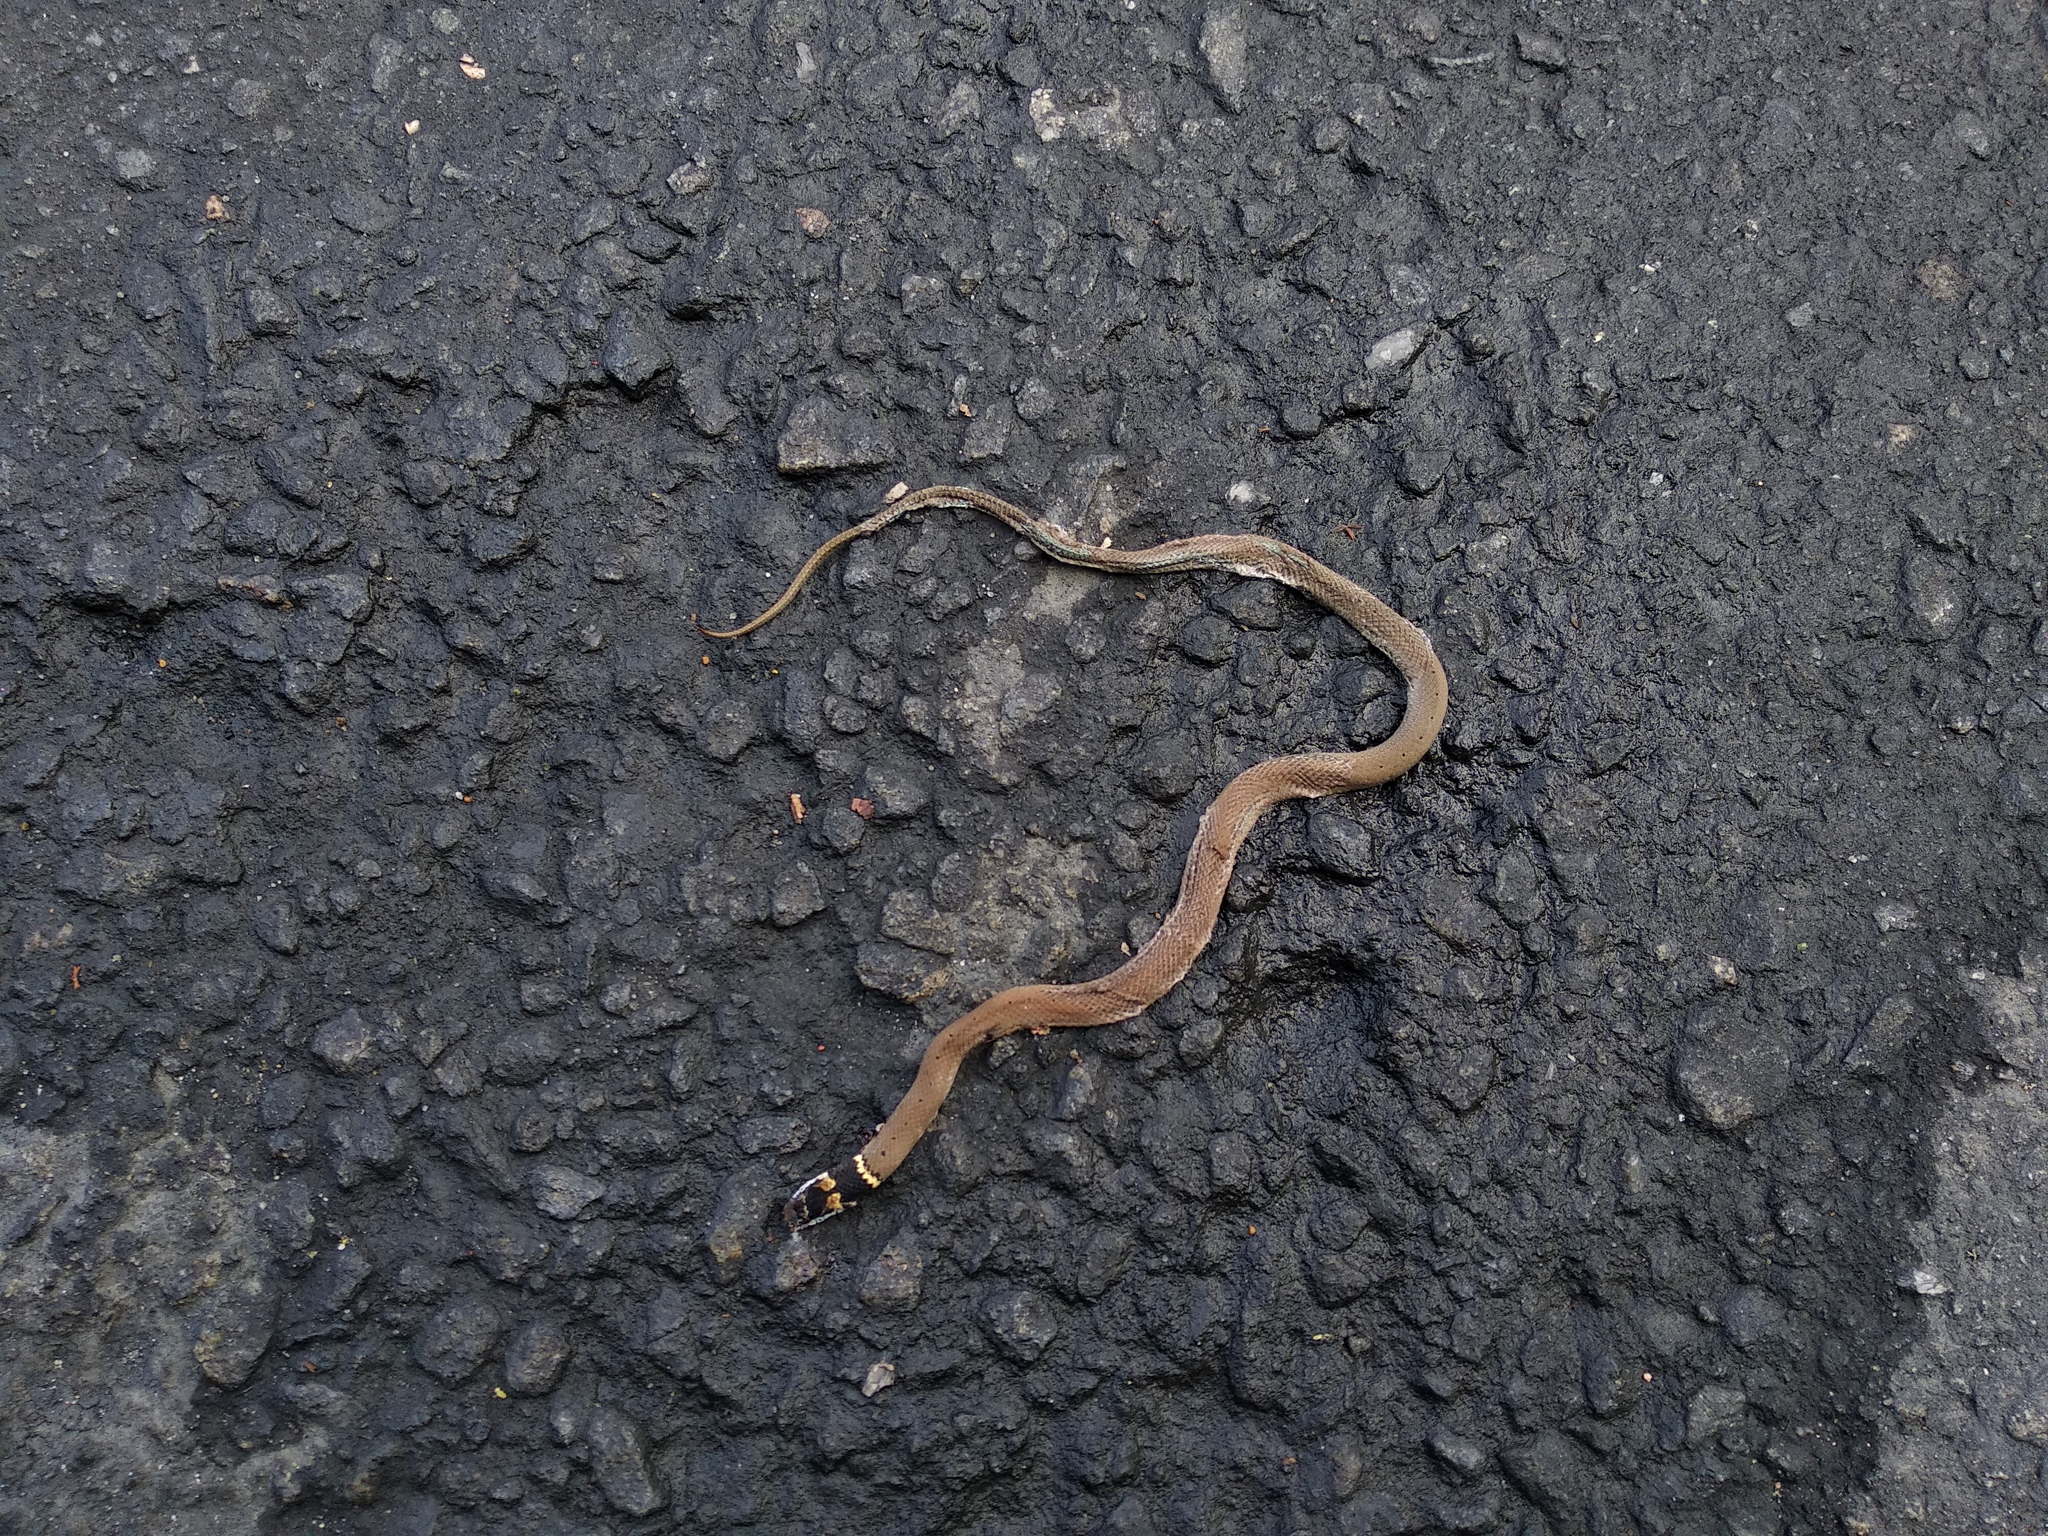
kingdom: Animalia
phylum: Chordata
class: Squamata
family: Colubridae
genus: Sibynophis
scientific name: Sibynophis subpunctatus
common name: Black-headed snake
